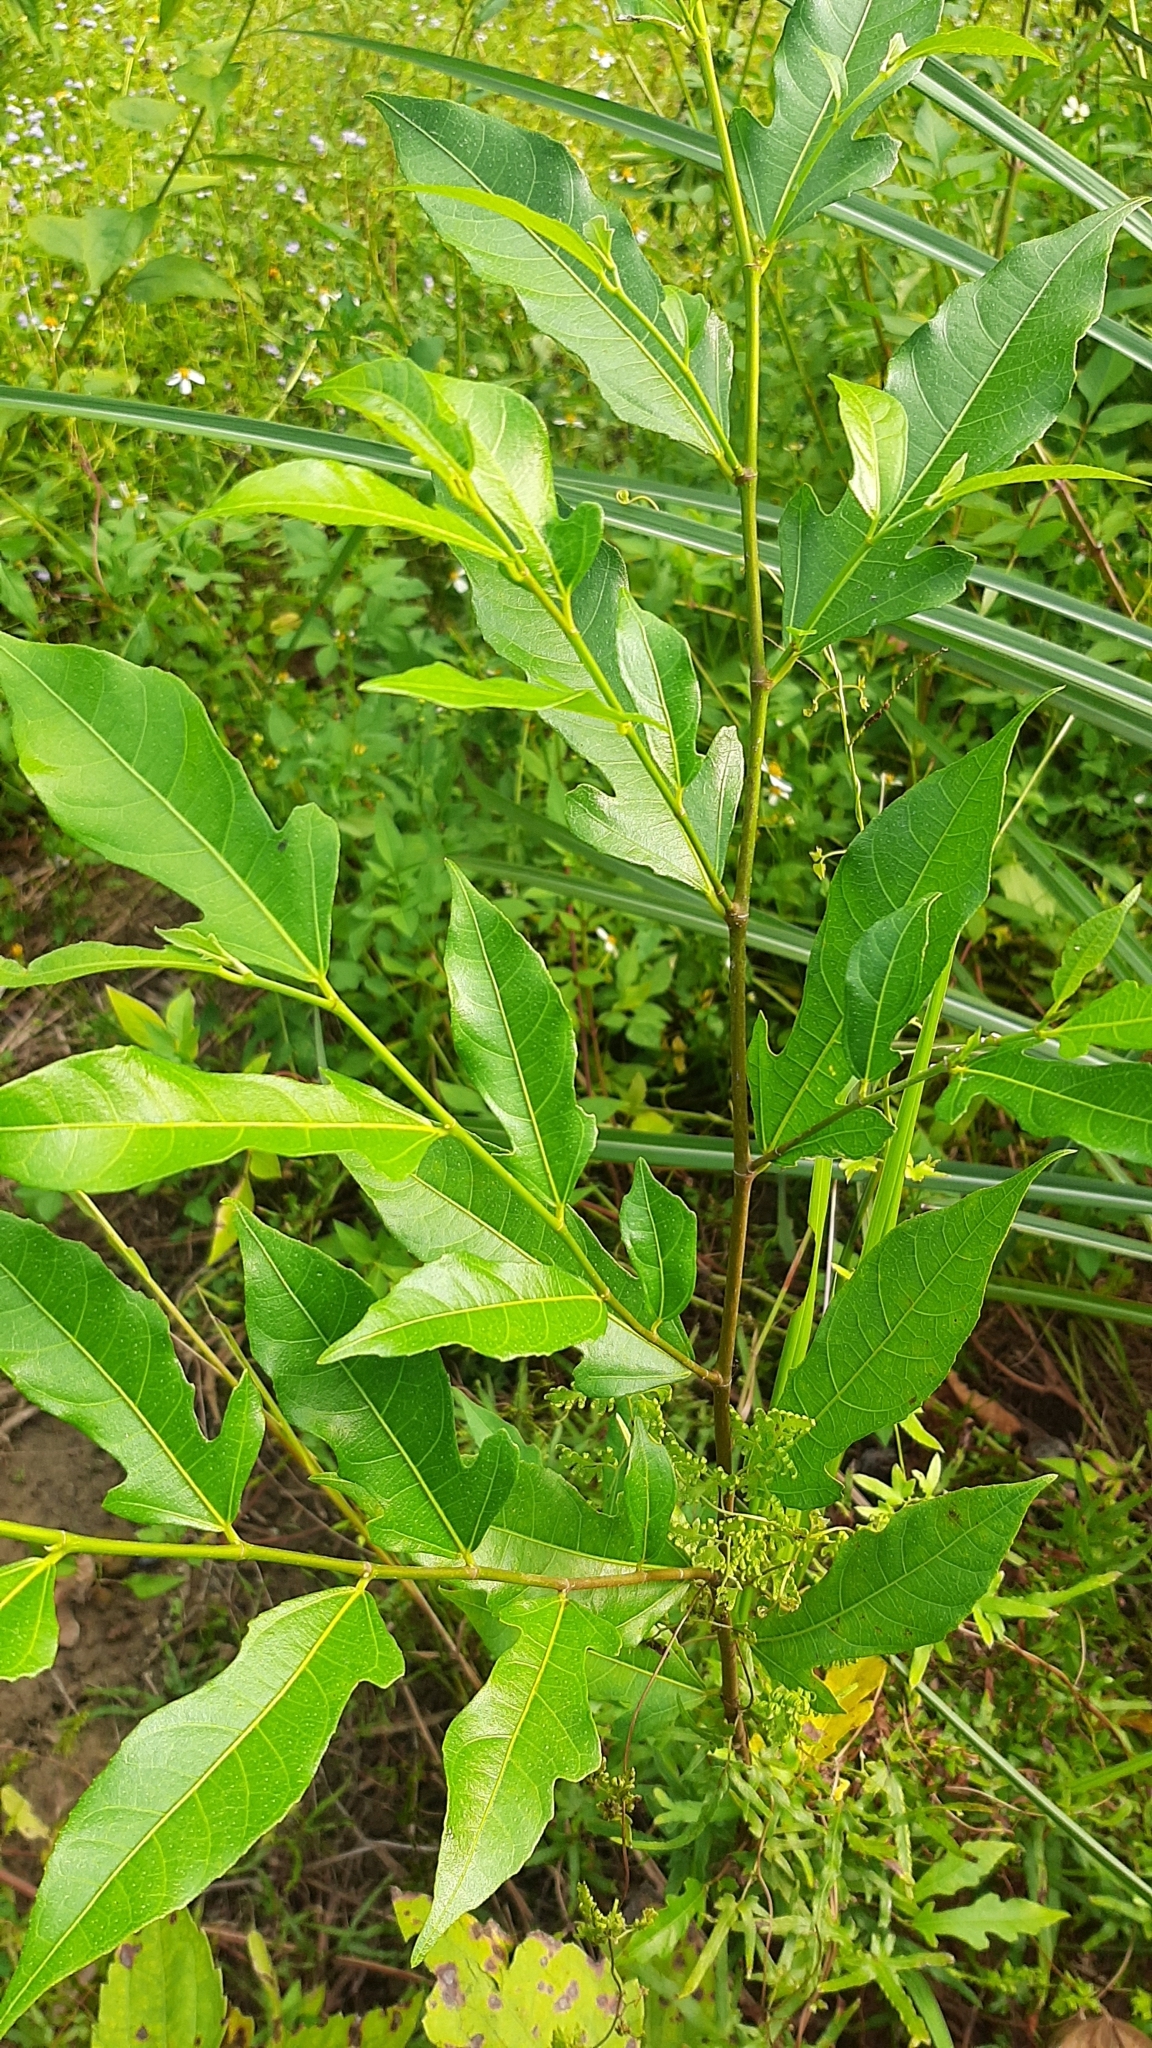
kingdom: Plantae
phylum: Tracheophyta
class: Magnoliopsida
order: Rosales
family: Moraceae
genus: Ficus
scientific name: Ficus ampelos
